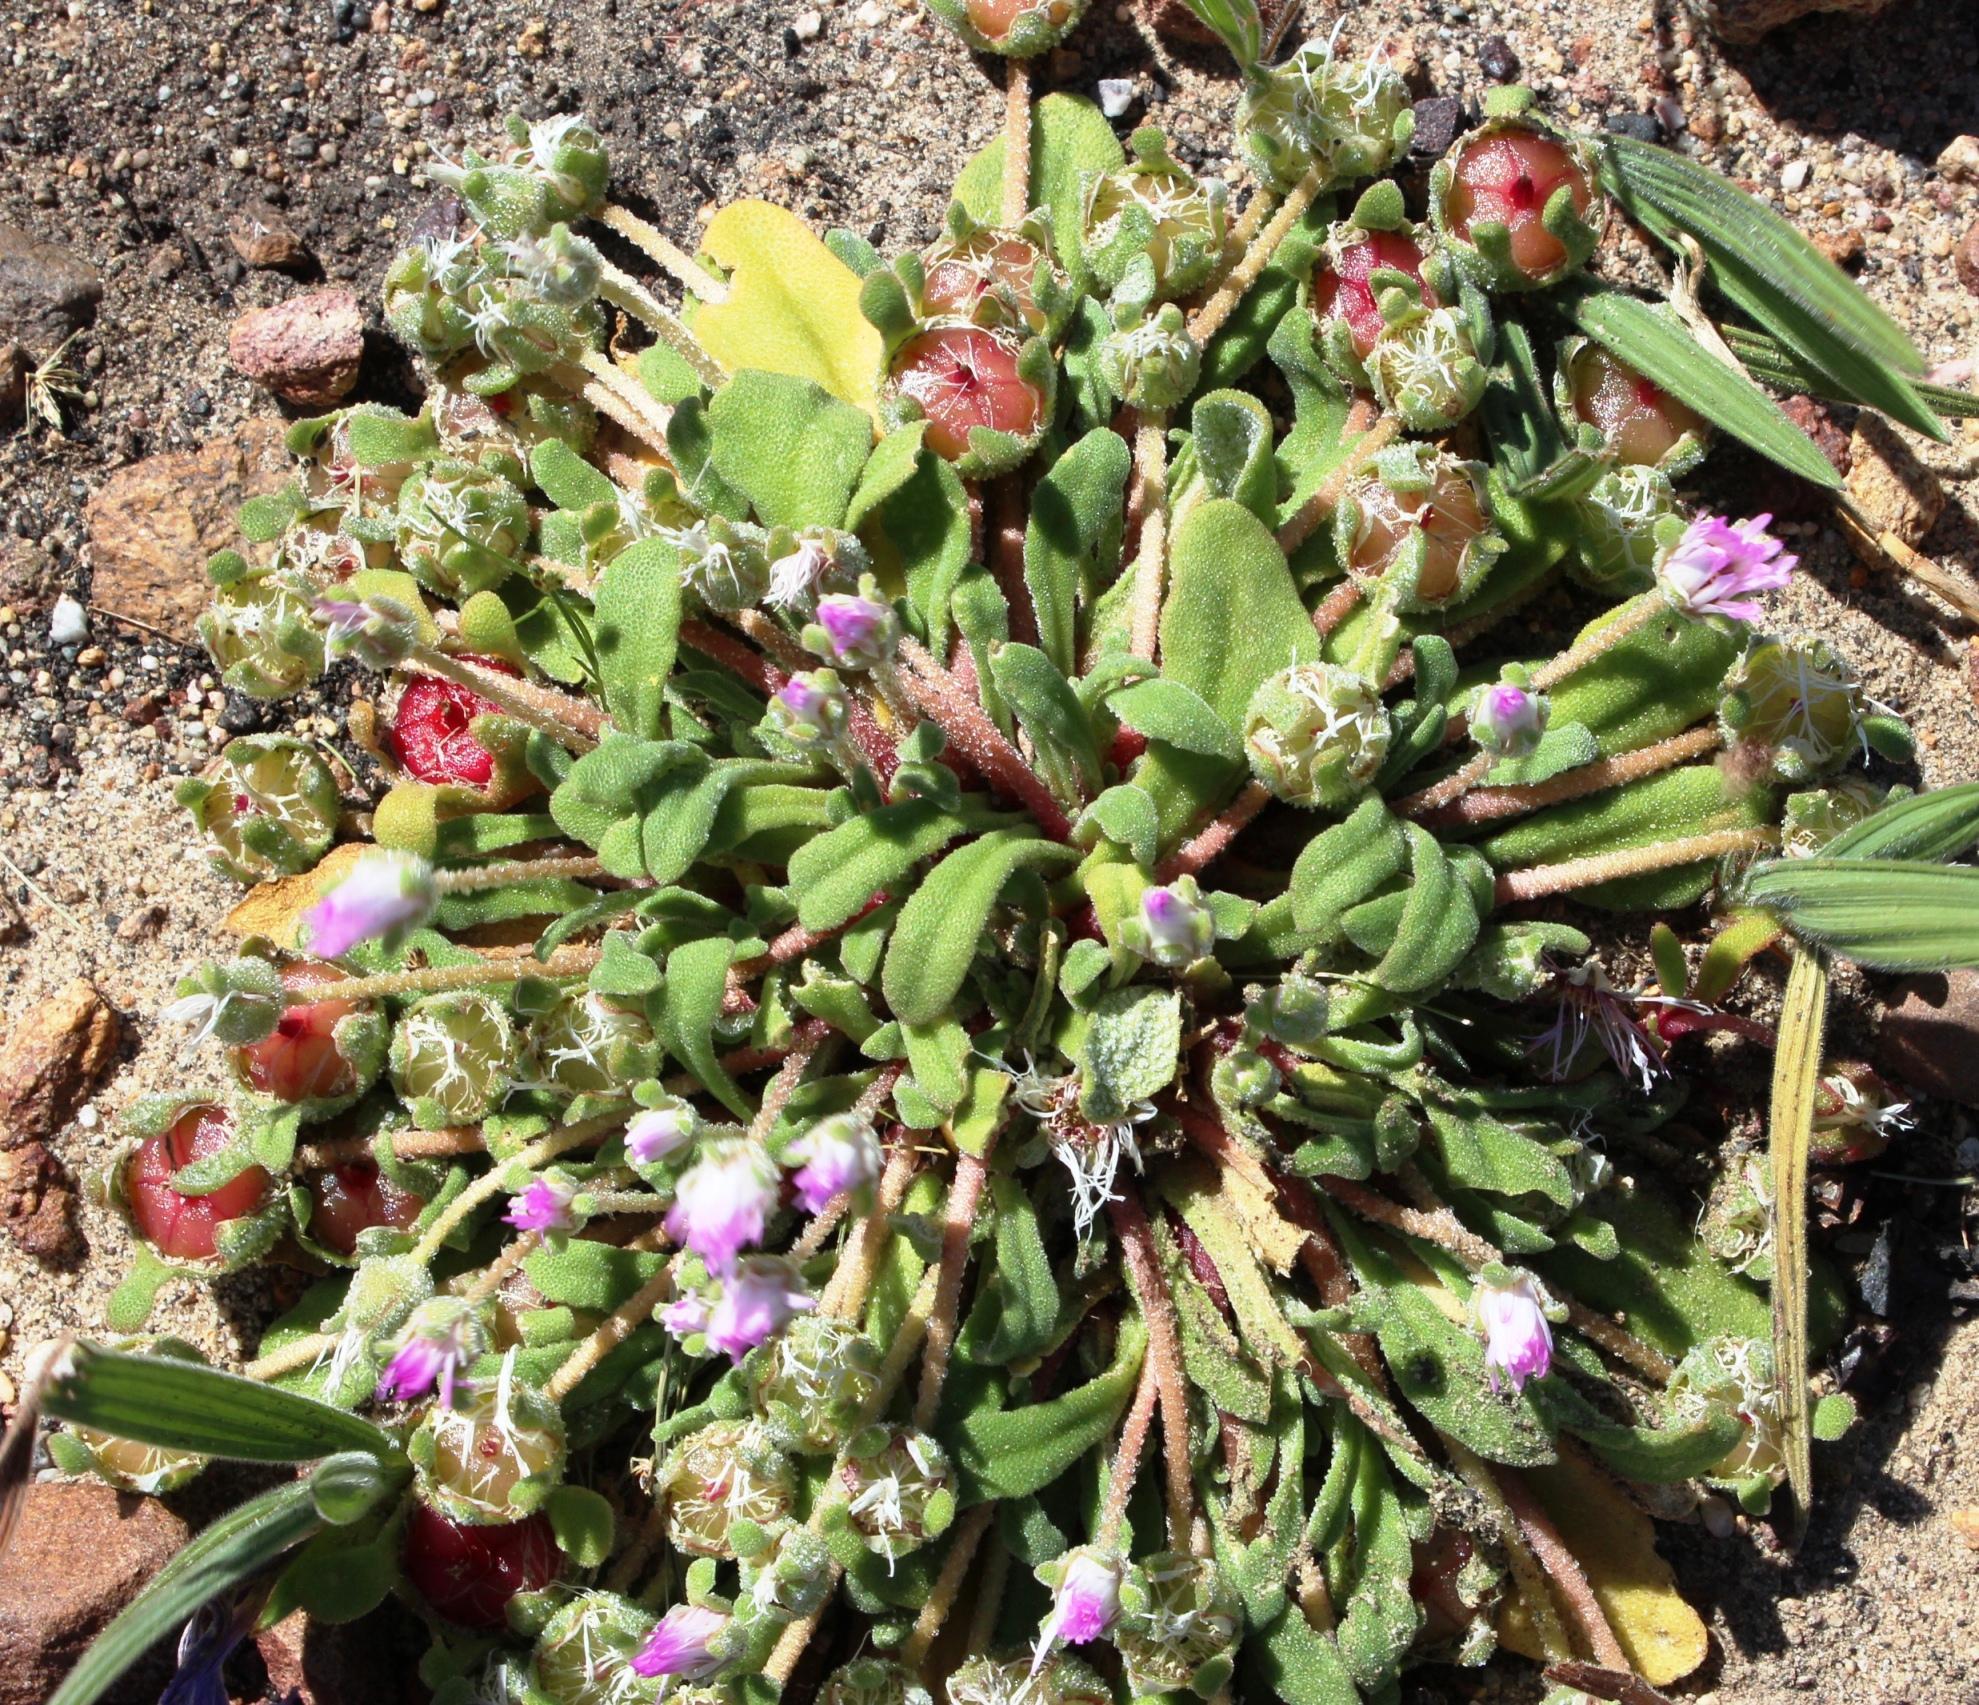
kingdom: Plantae
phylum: Tracheophyta
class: Magnoliopsida
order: Caryophyllales
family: Aizoaceae
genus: Cleretum
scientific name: Cleretum bellidiforme
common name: Livingstone daisy
